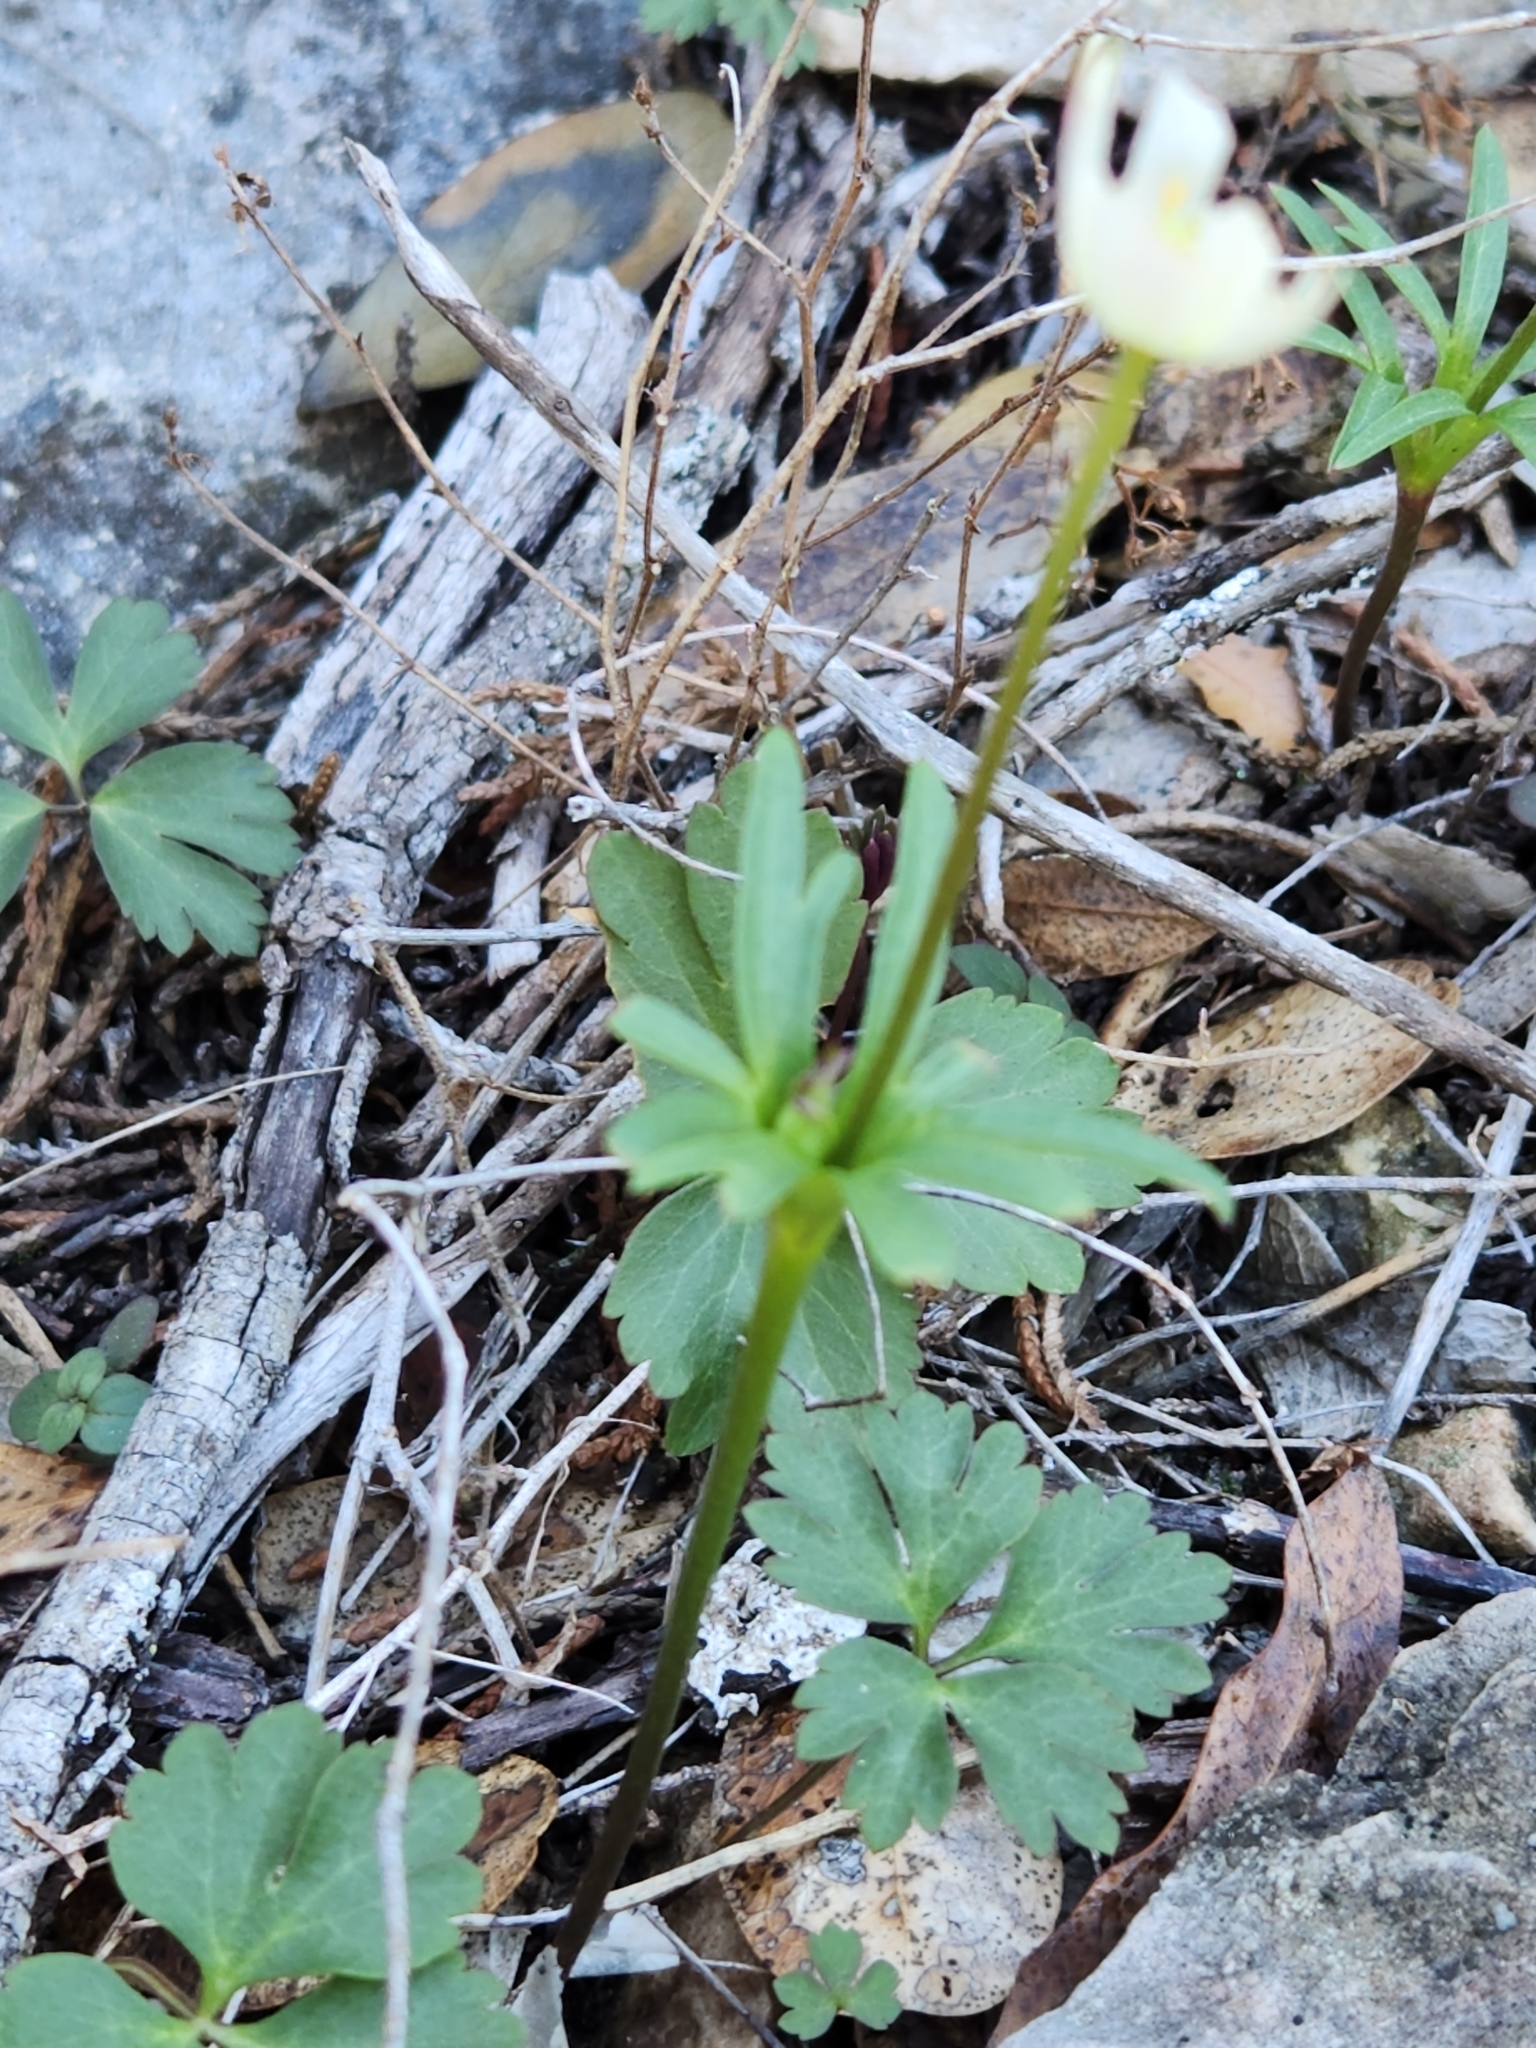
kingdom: Plantae
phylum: Tracheophyta
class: Magnoliopsida
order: Ranunculales
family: Ranunculaceae
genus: Anemone
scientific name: Anemone edwardsiana
